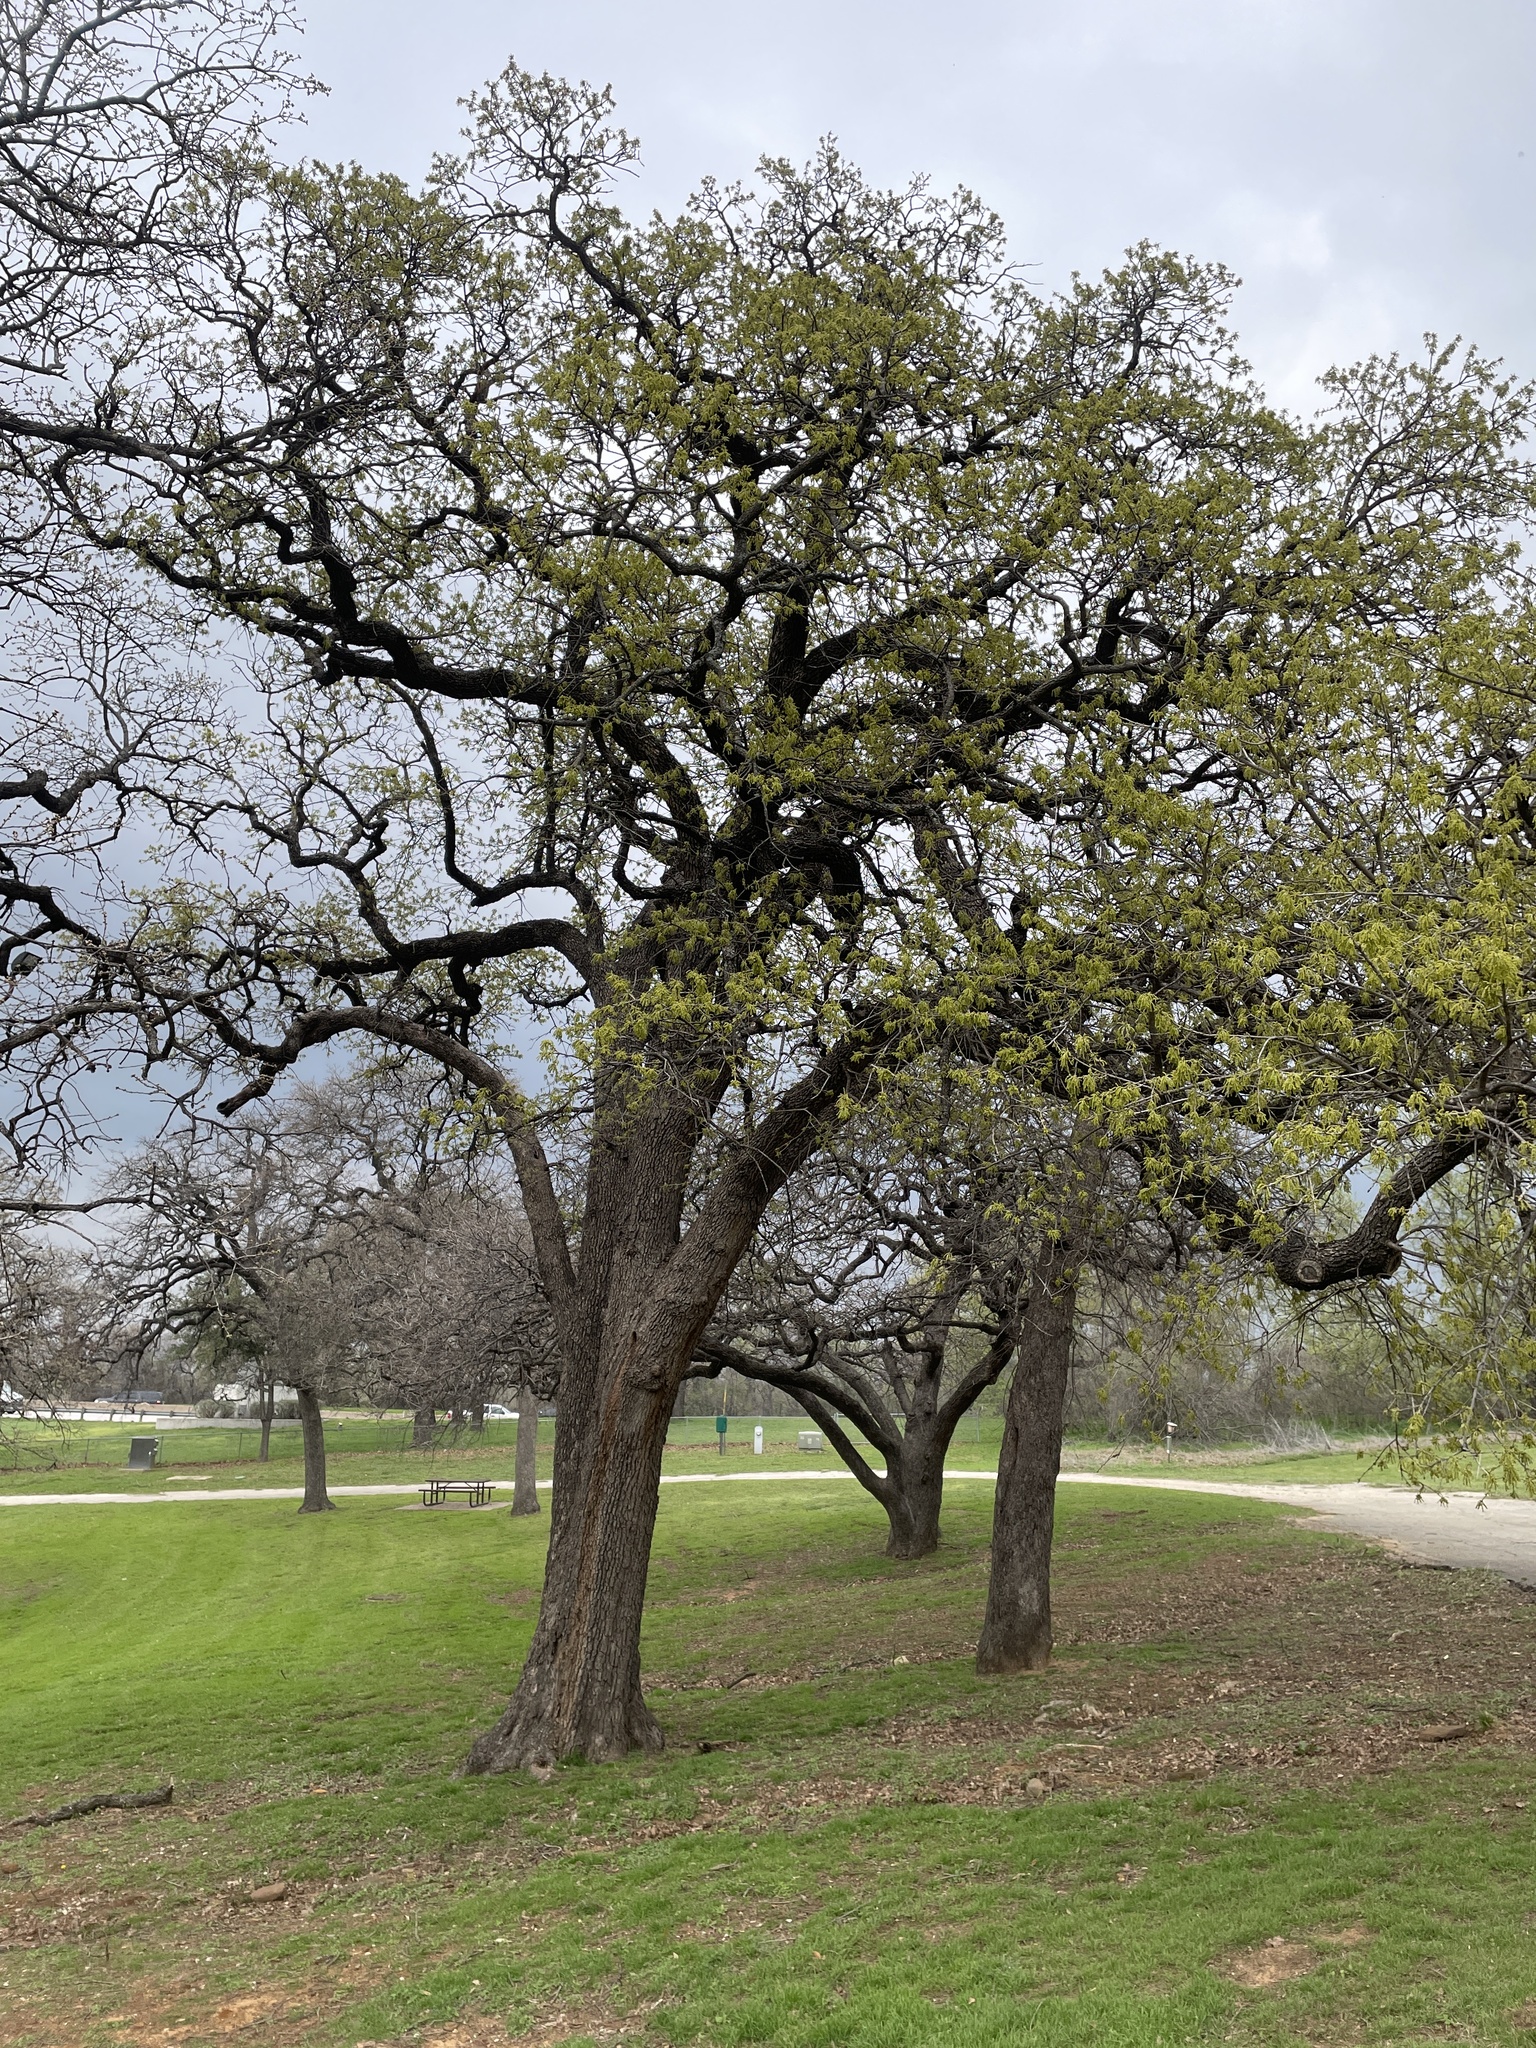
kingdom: Plantae
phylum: Tracheophyta
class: Magnoliopsida
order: Fagales
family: Fagaceae
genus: Quercus
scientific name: Quercus stellata
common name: Post oak
